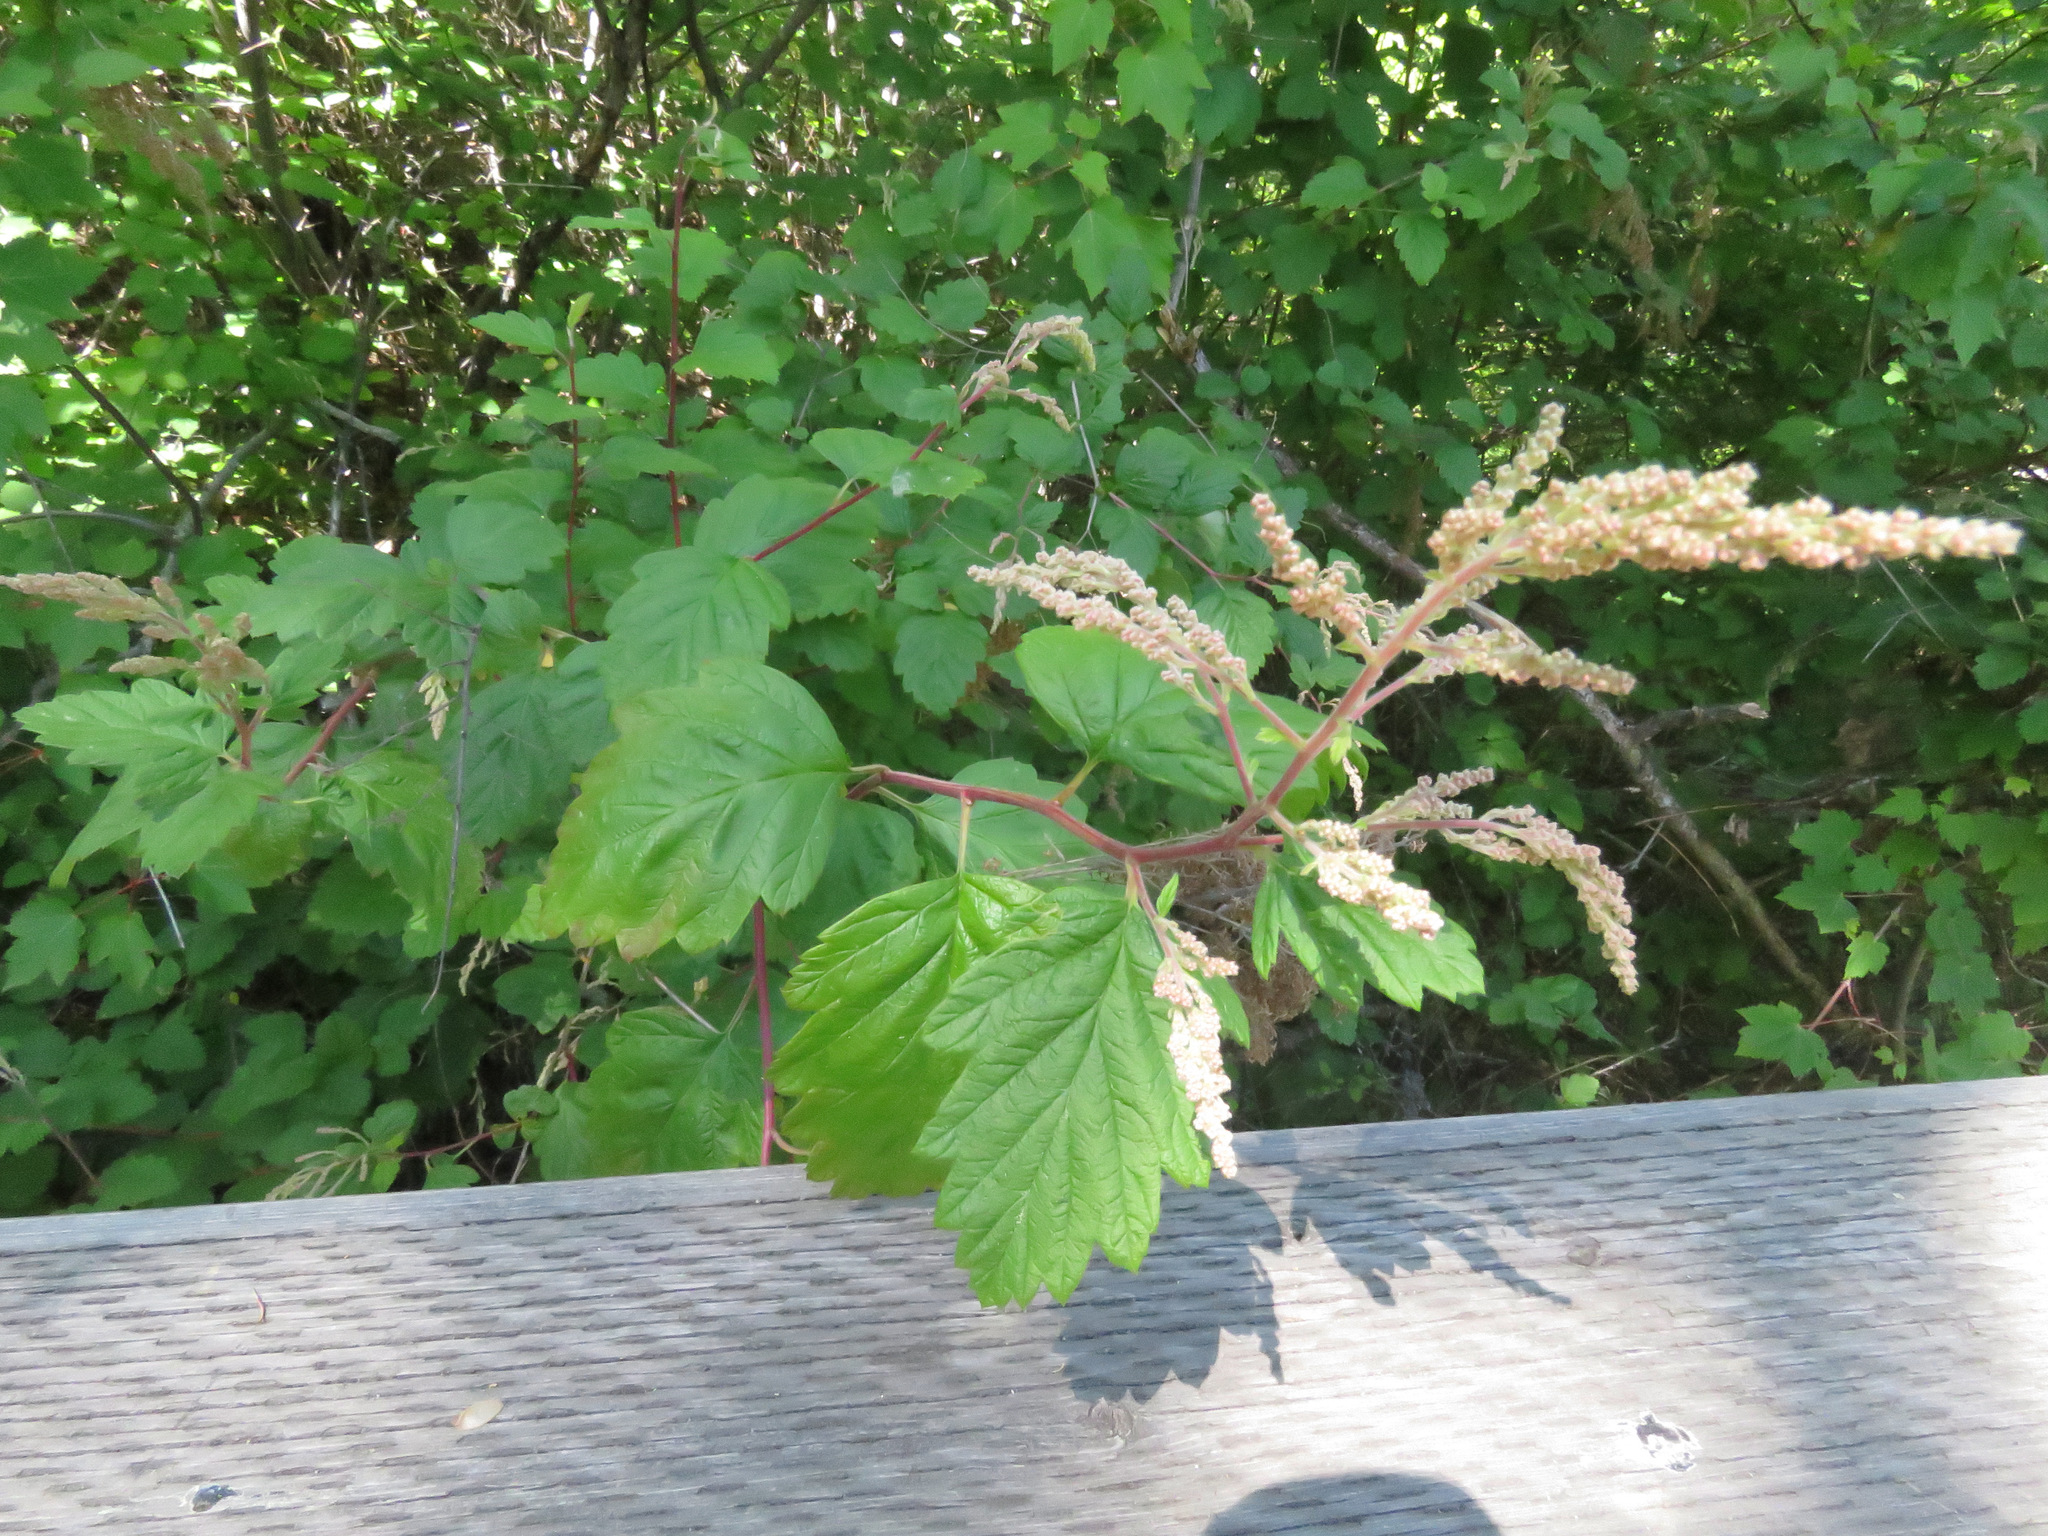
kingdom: Plantae
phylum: Tracheophyta
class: Magnoliopsida
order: Rosales
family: Rosaceae
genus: Holodiscus
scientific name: Holodiscus discolor
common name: Oceanspray
